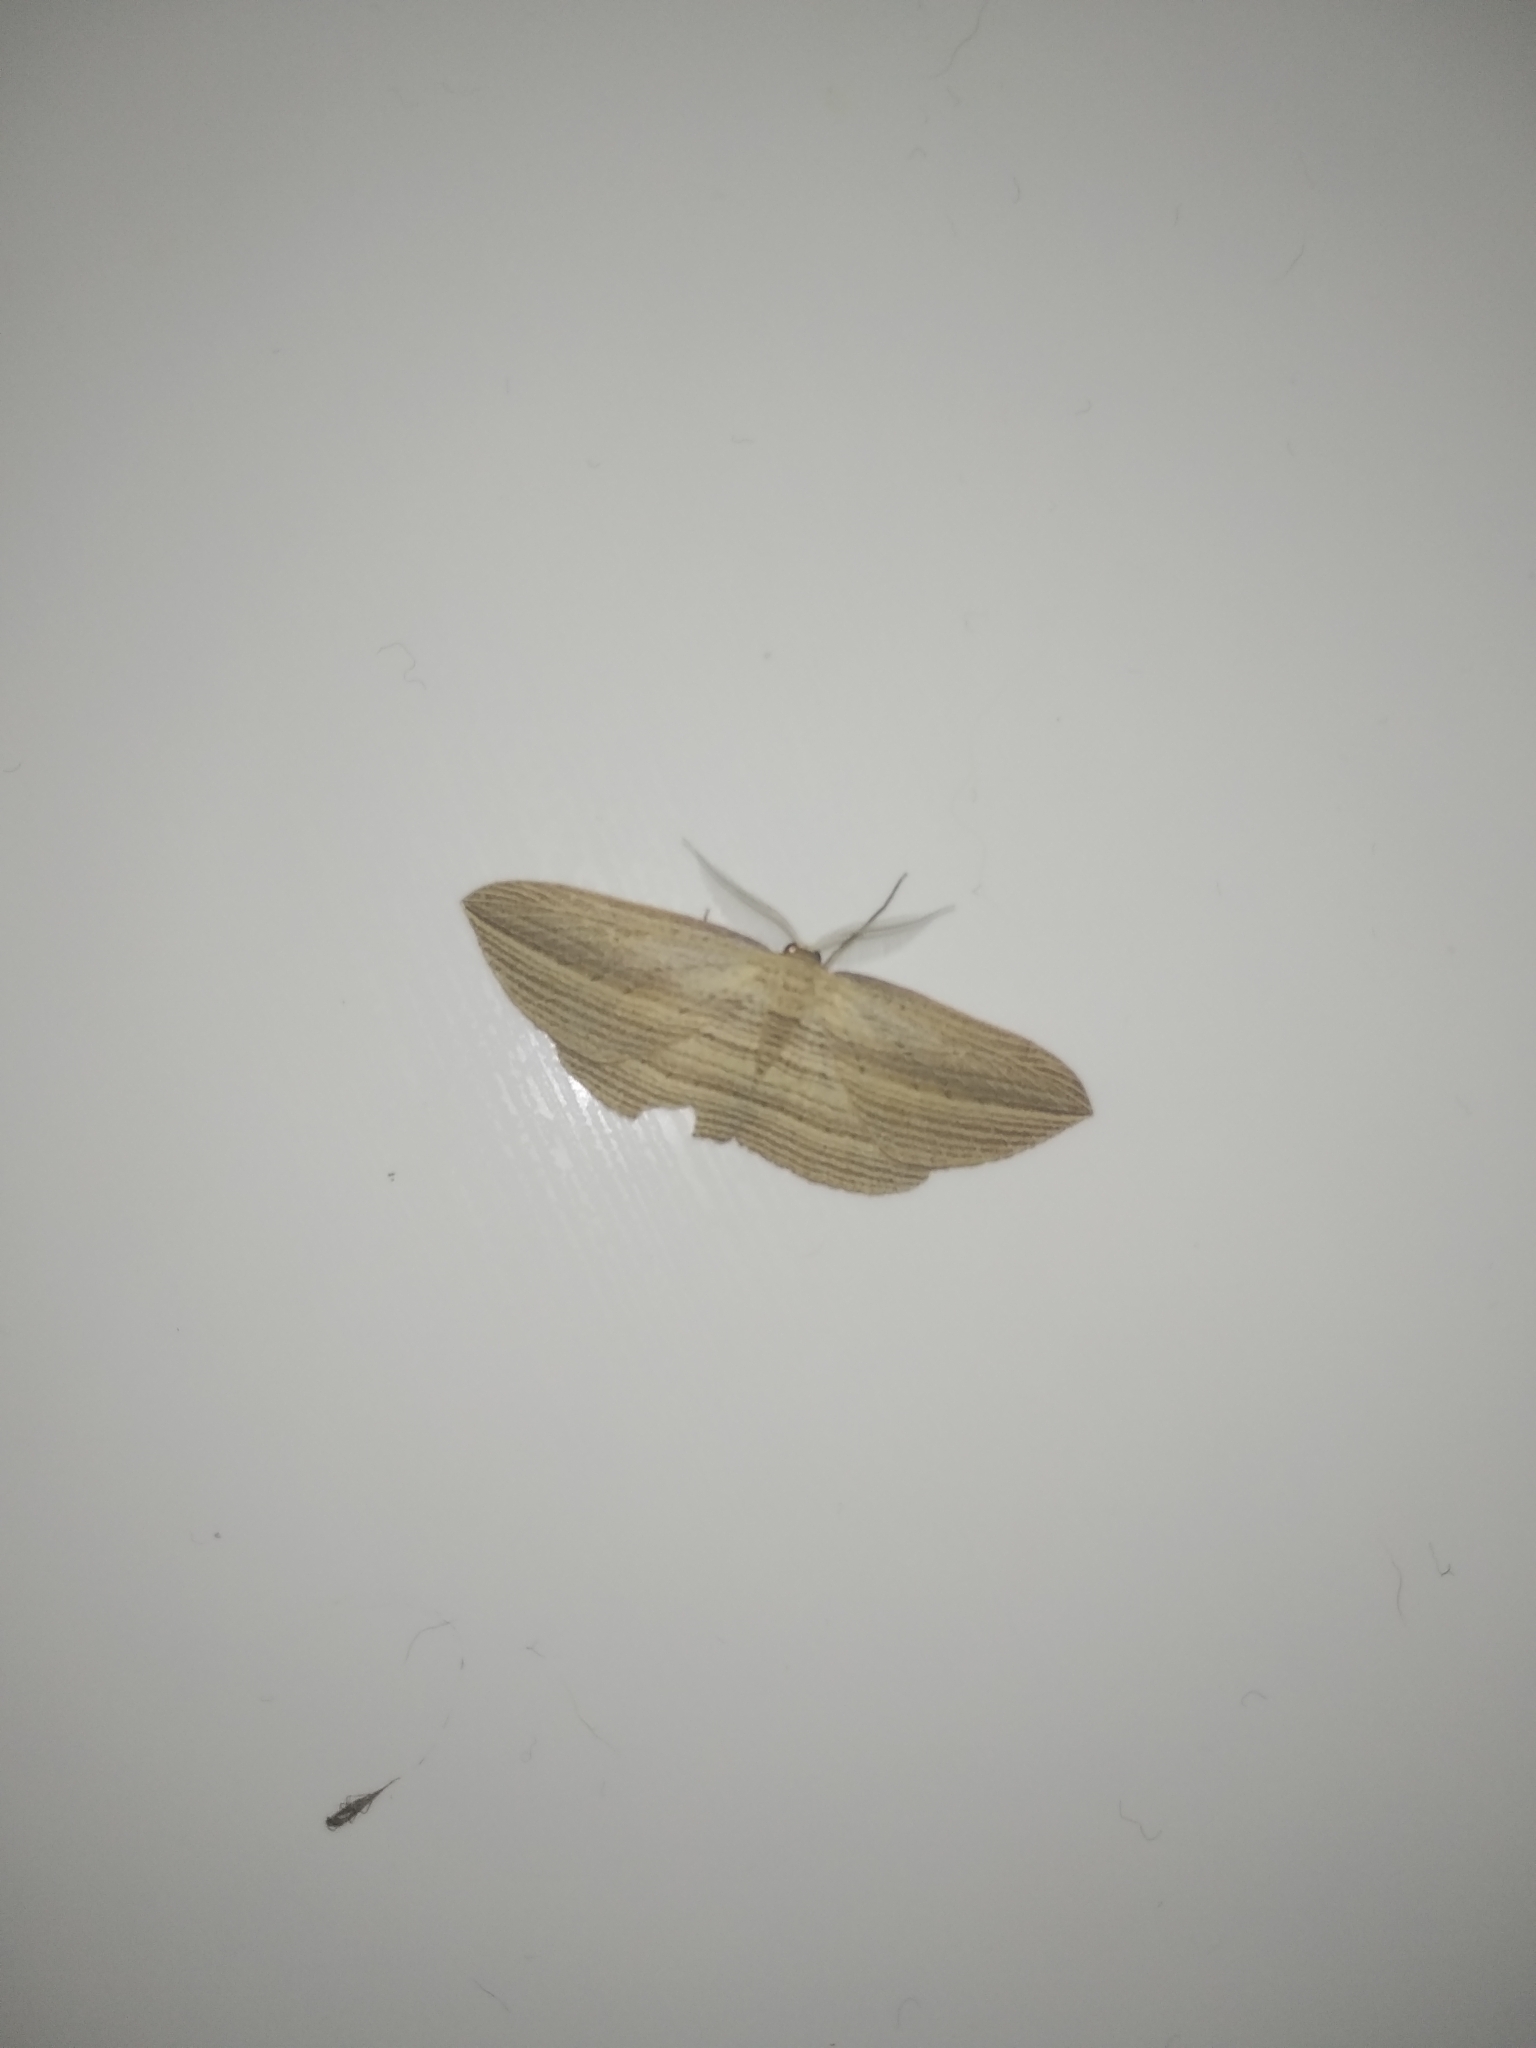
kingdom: Animalia
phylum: Arthropoda
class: Insecta
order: Lepidoptera
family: Geometridae
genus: Epiphryne
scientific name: Epiphryne verriculata
